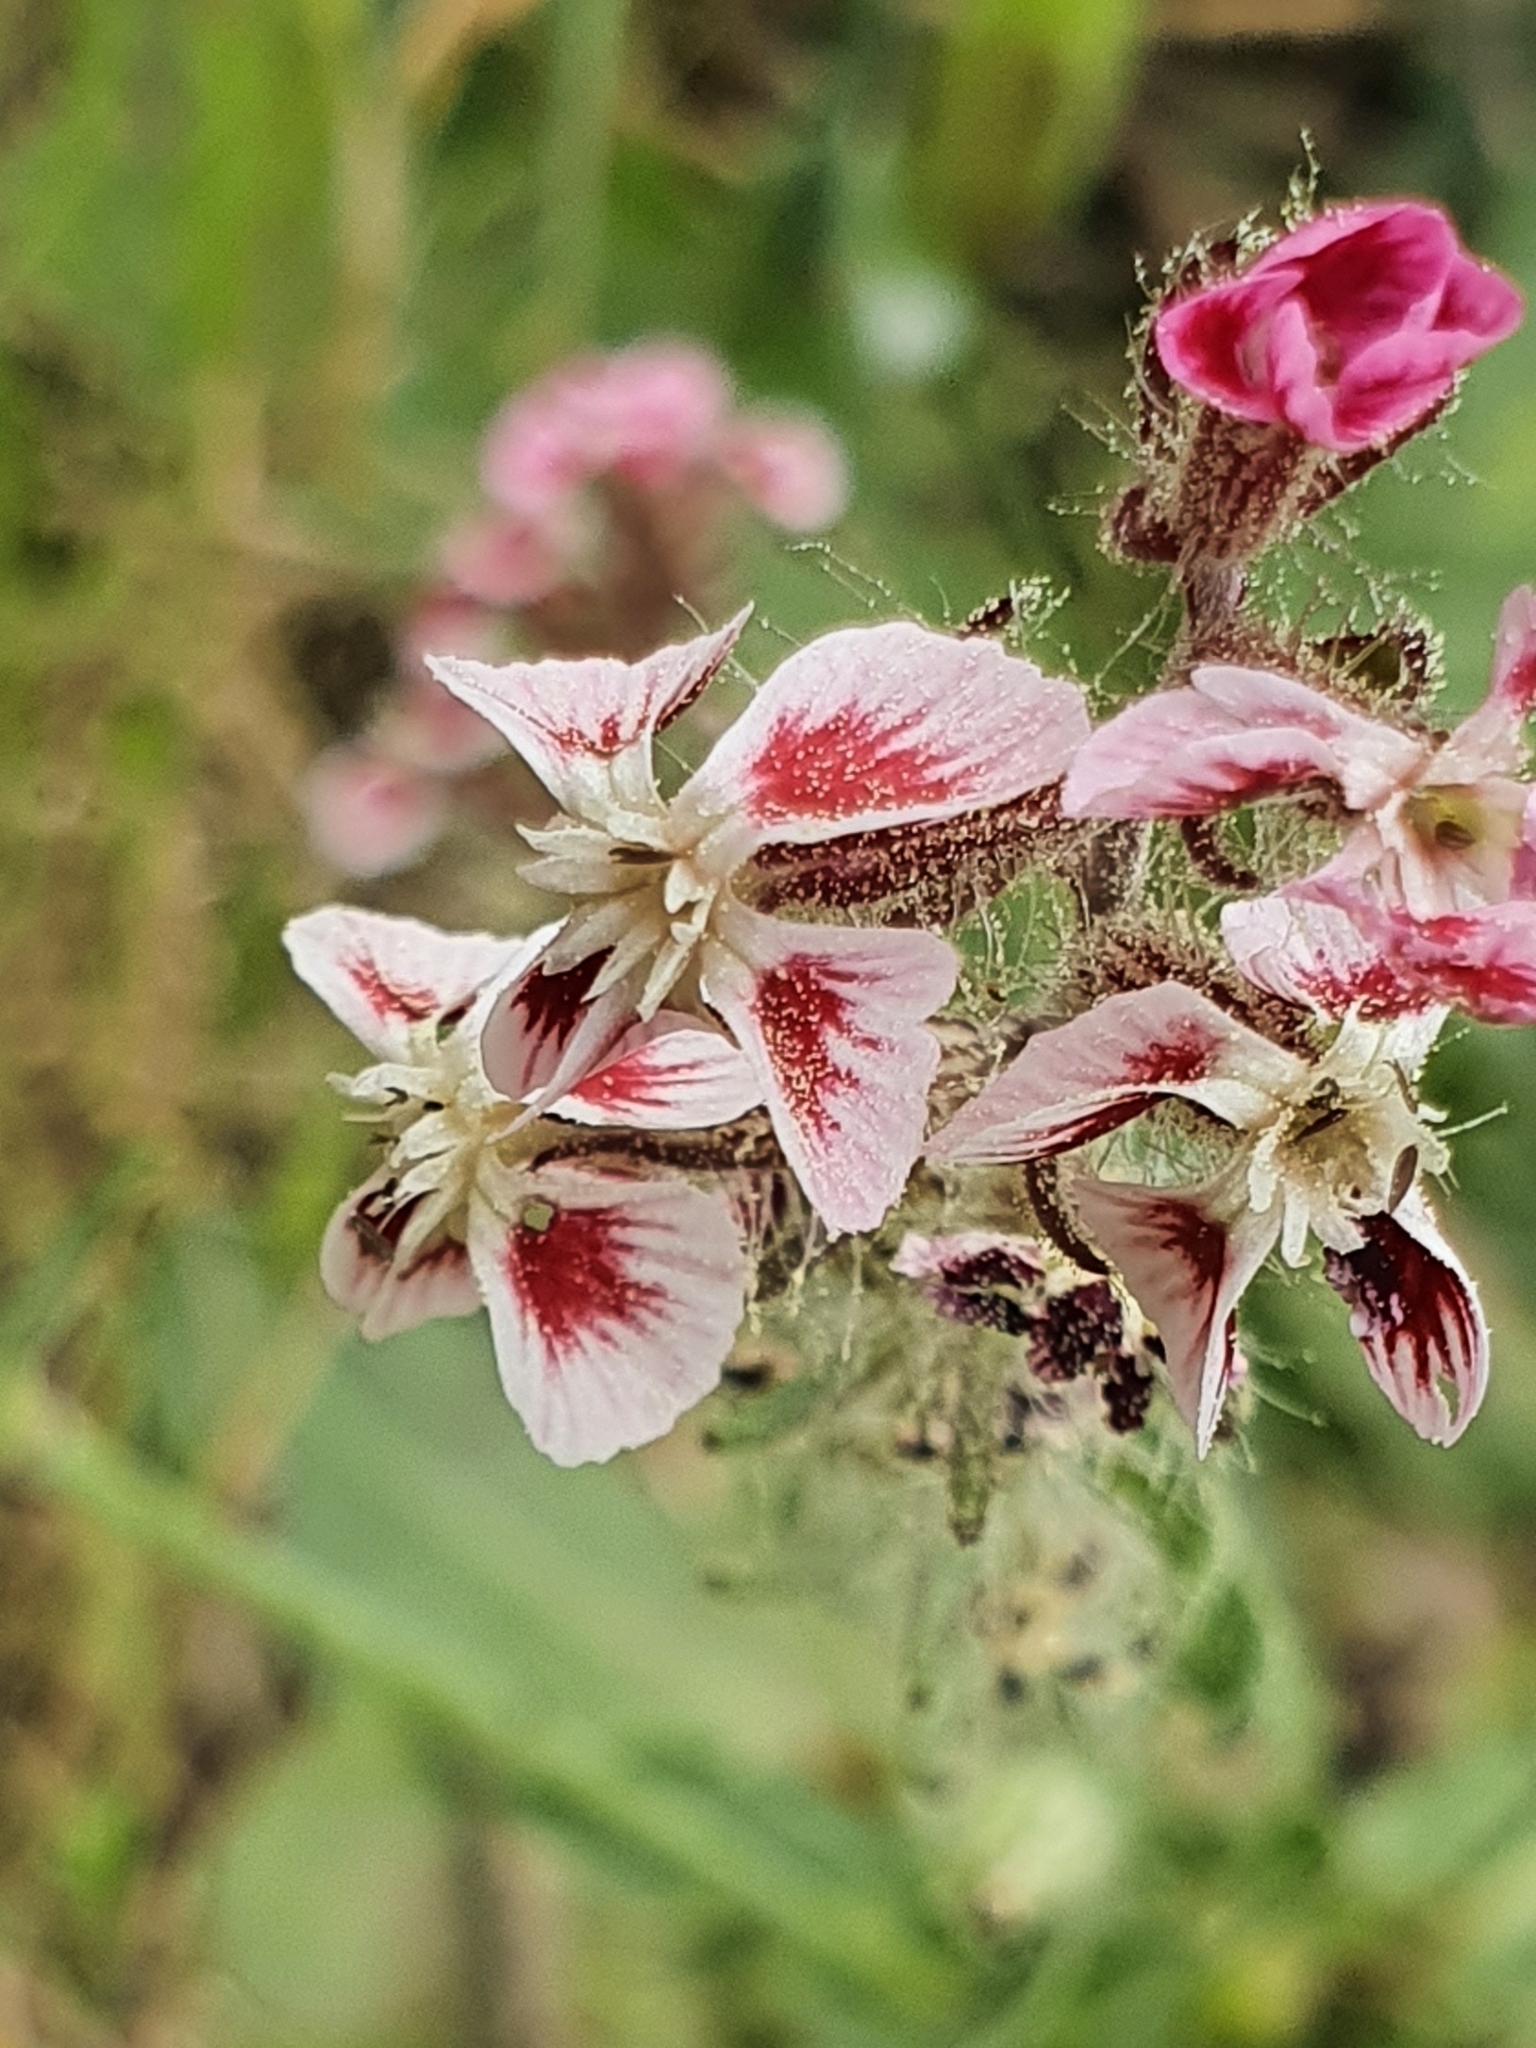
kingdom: Plantae
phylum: Tracheophyta
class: Magnoliopsida
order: Caryophyllales
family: Caryophyllaceae
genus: Silene
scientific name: Silene gallica
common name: Small-flowered catchfly
